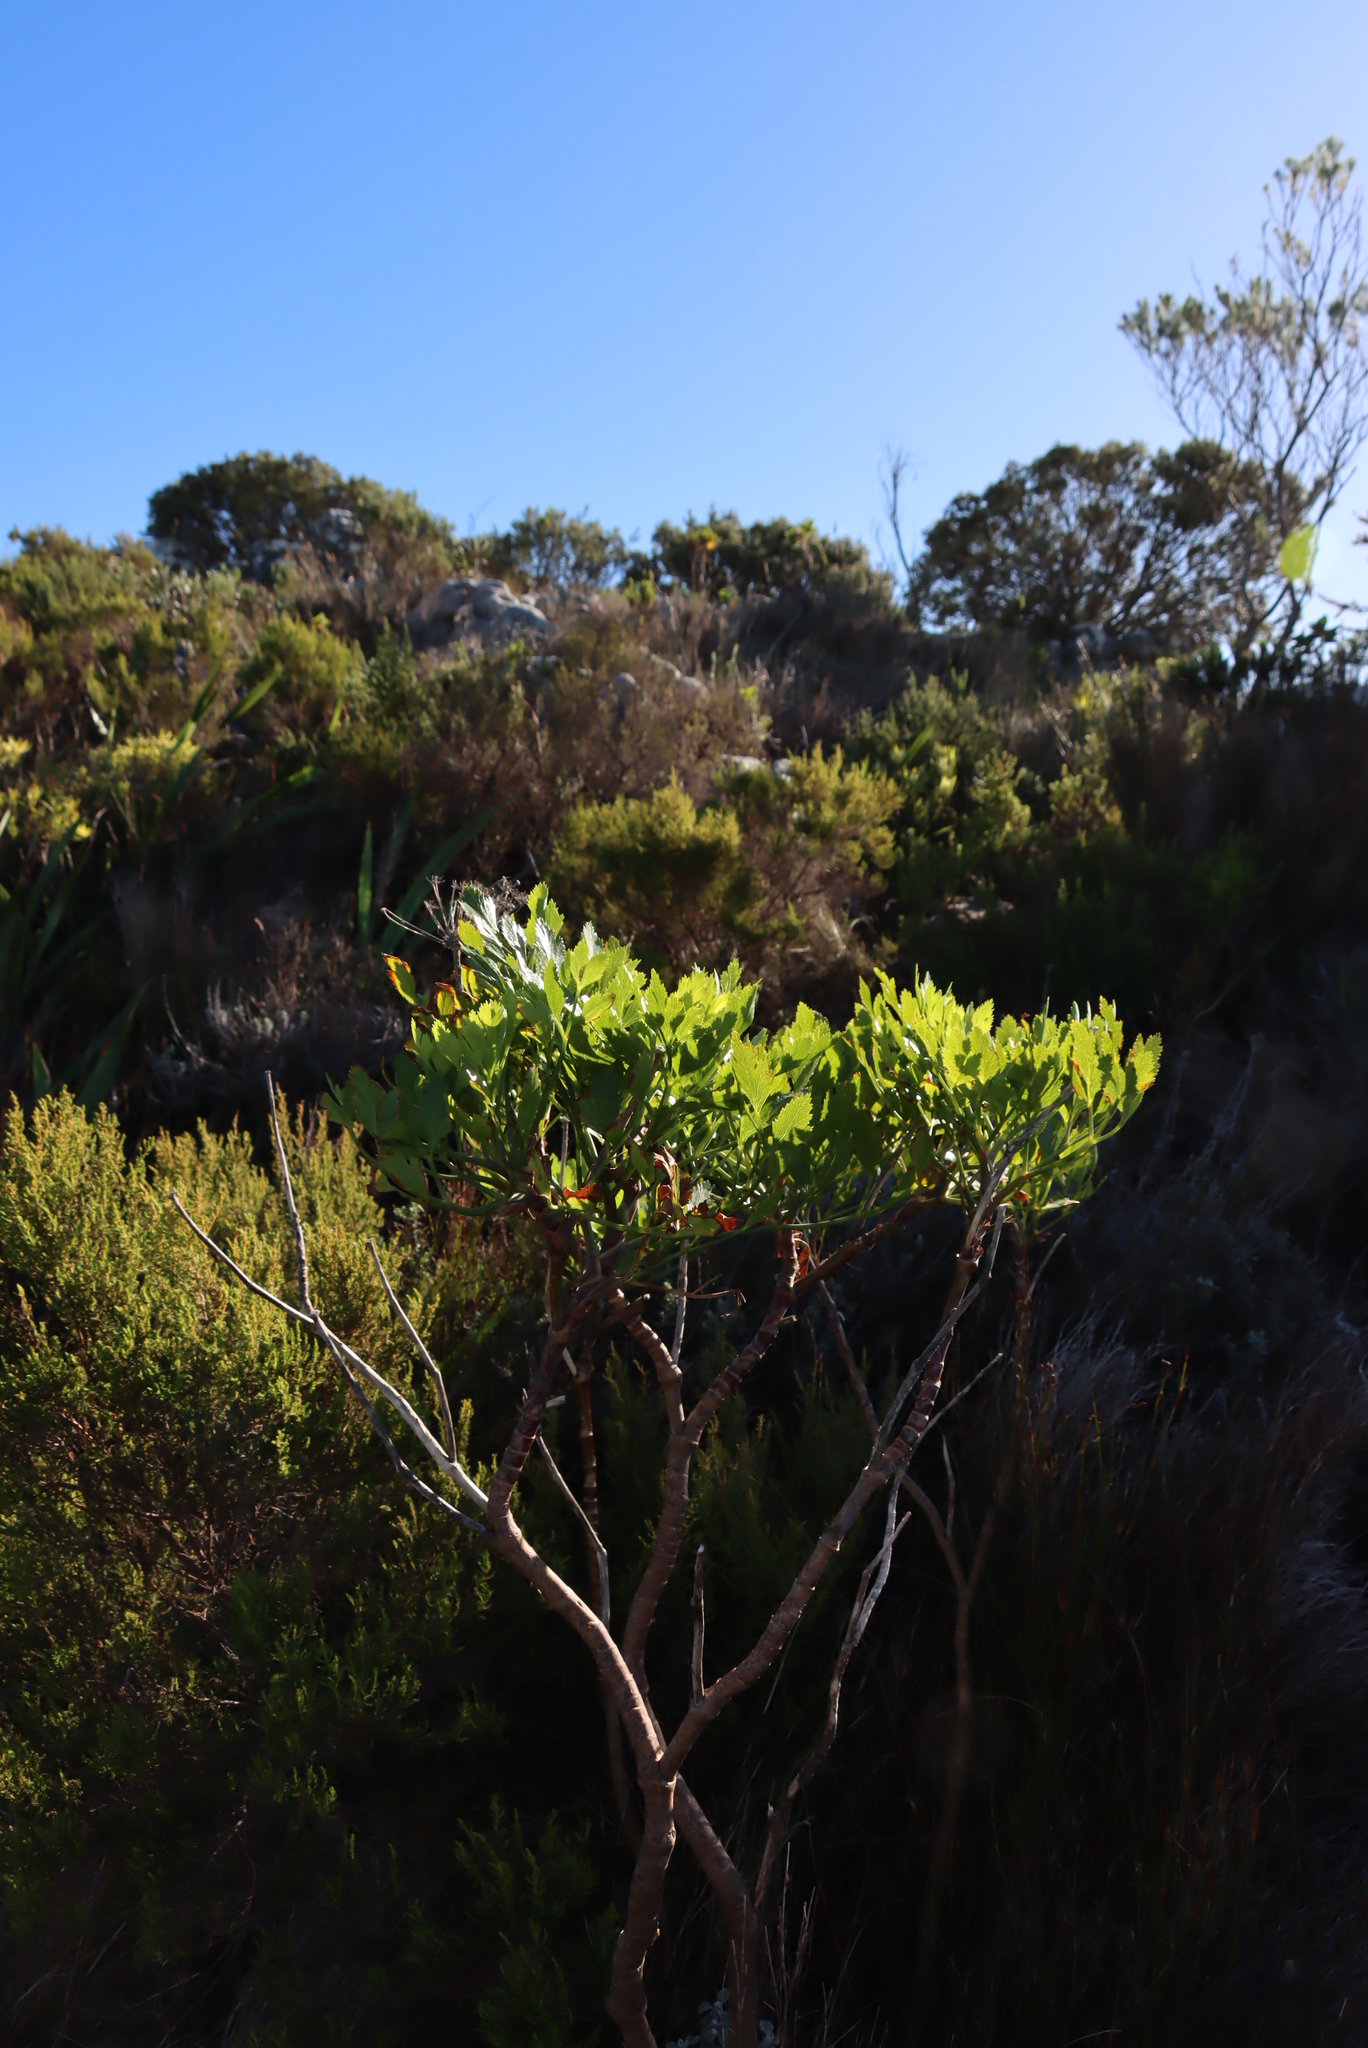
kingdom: Plantae
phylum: Tracheophyta
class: Magnoliopsida
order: Apiales
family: Apiaceae
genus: Notobubon
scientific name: Notobubon laevigatum
